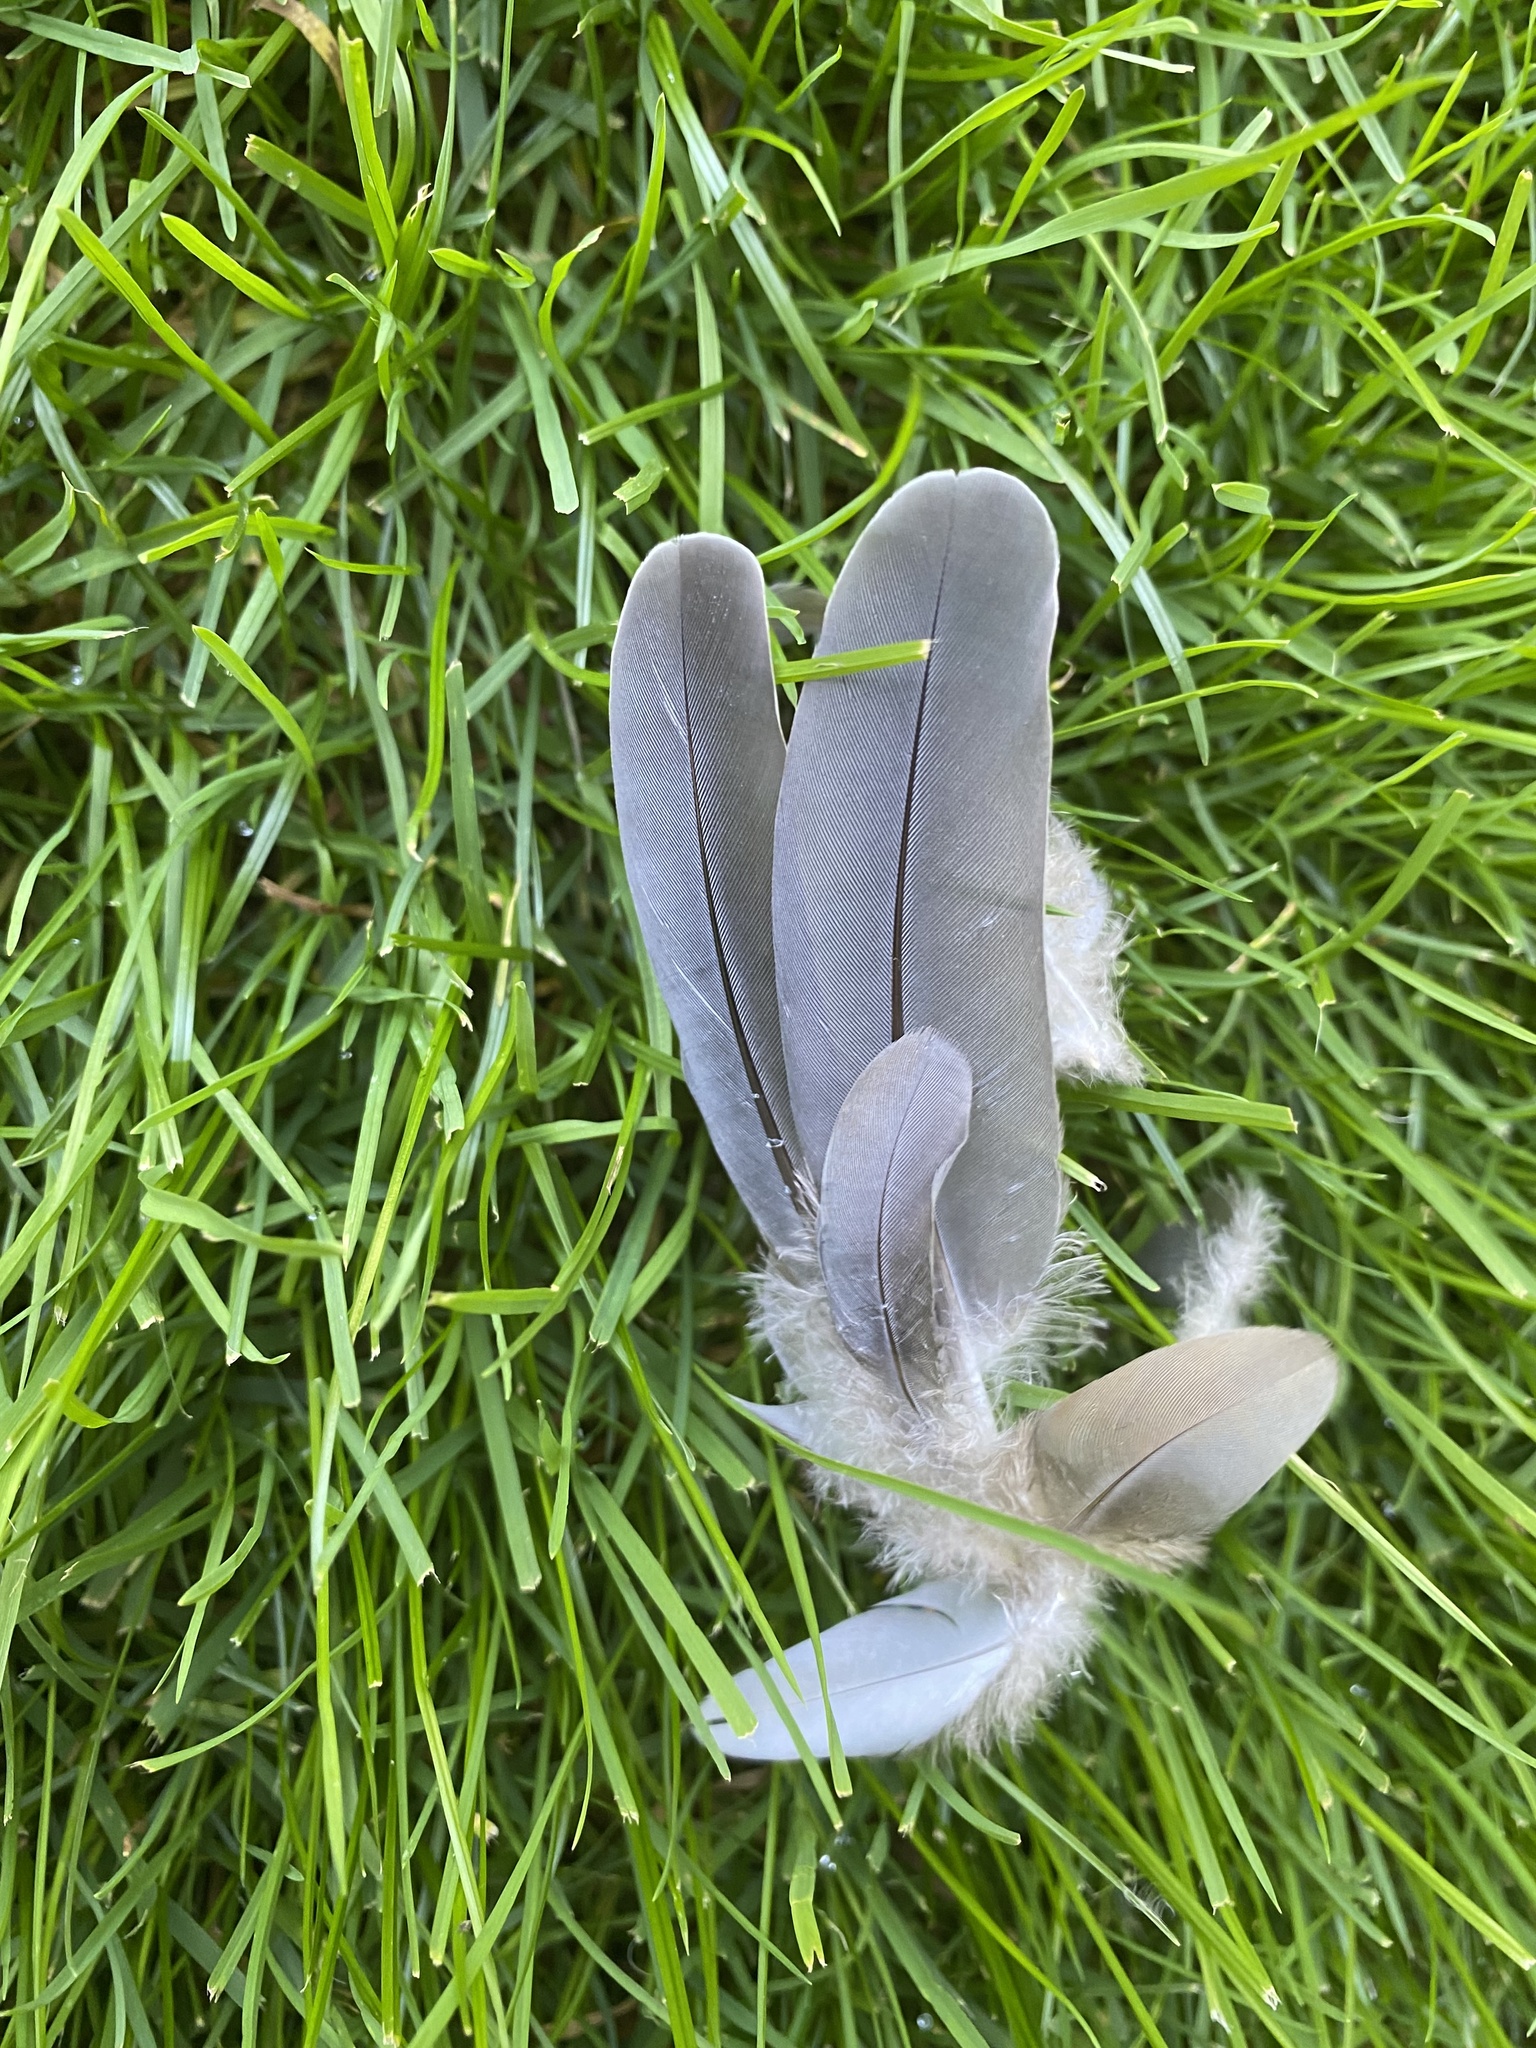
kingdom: Animalia
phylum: Chordata
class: Aves
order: Columbiformes
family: Columbidae
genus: Zenaida
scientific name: Zenaida macroura
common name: Mourning dove
